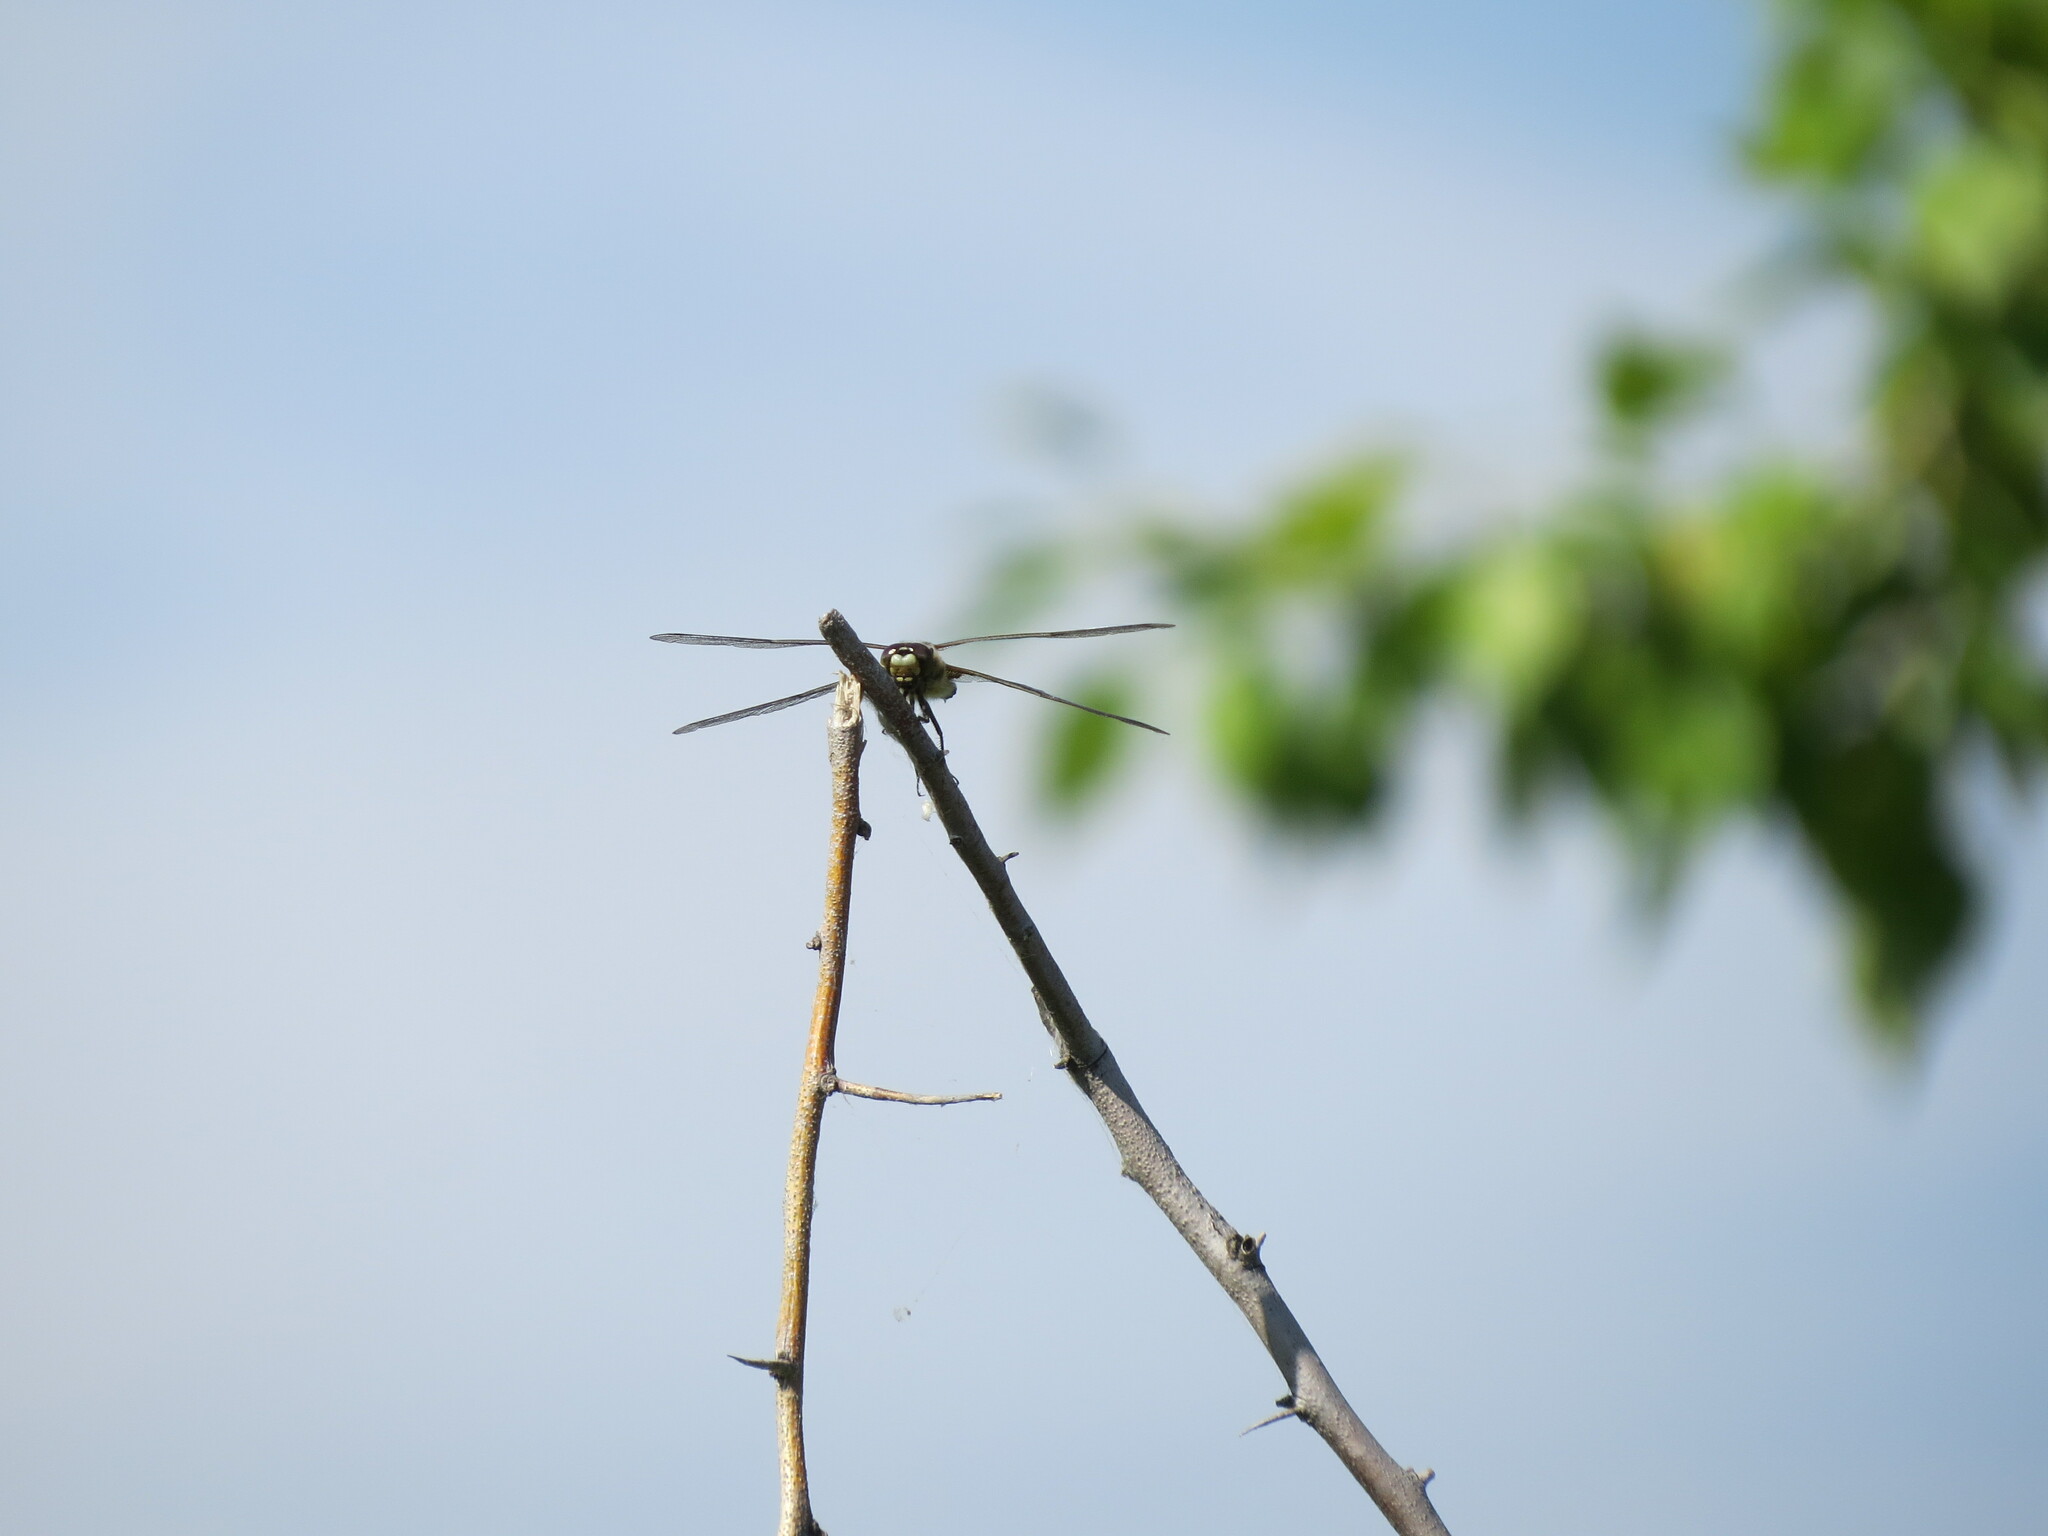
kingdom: Animalia
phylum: Arthropoda
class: Insecta
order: Odonata
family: Libellulidae
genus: Libellula
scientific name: Libellula quadrimaculata
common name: Four-spotted chaser
